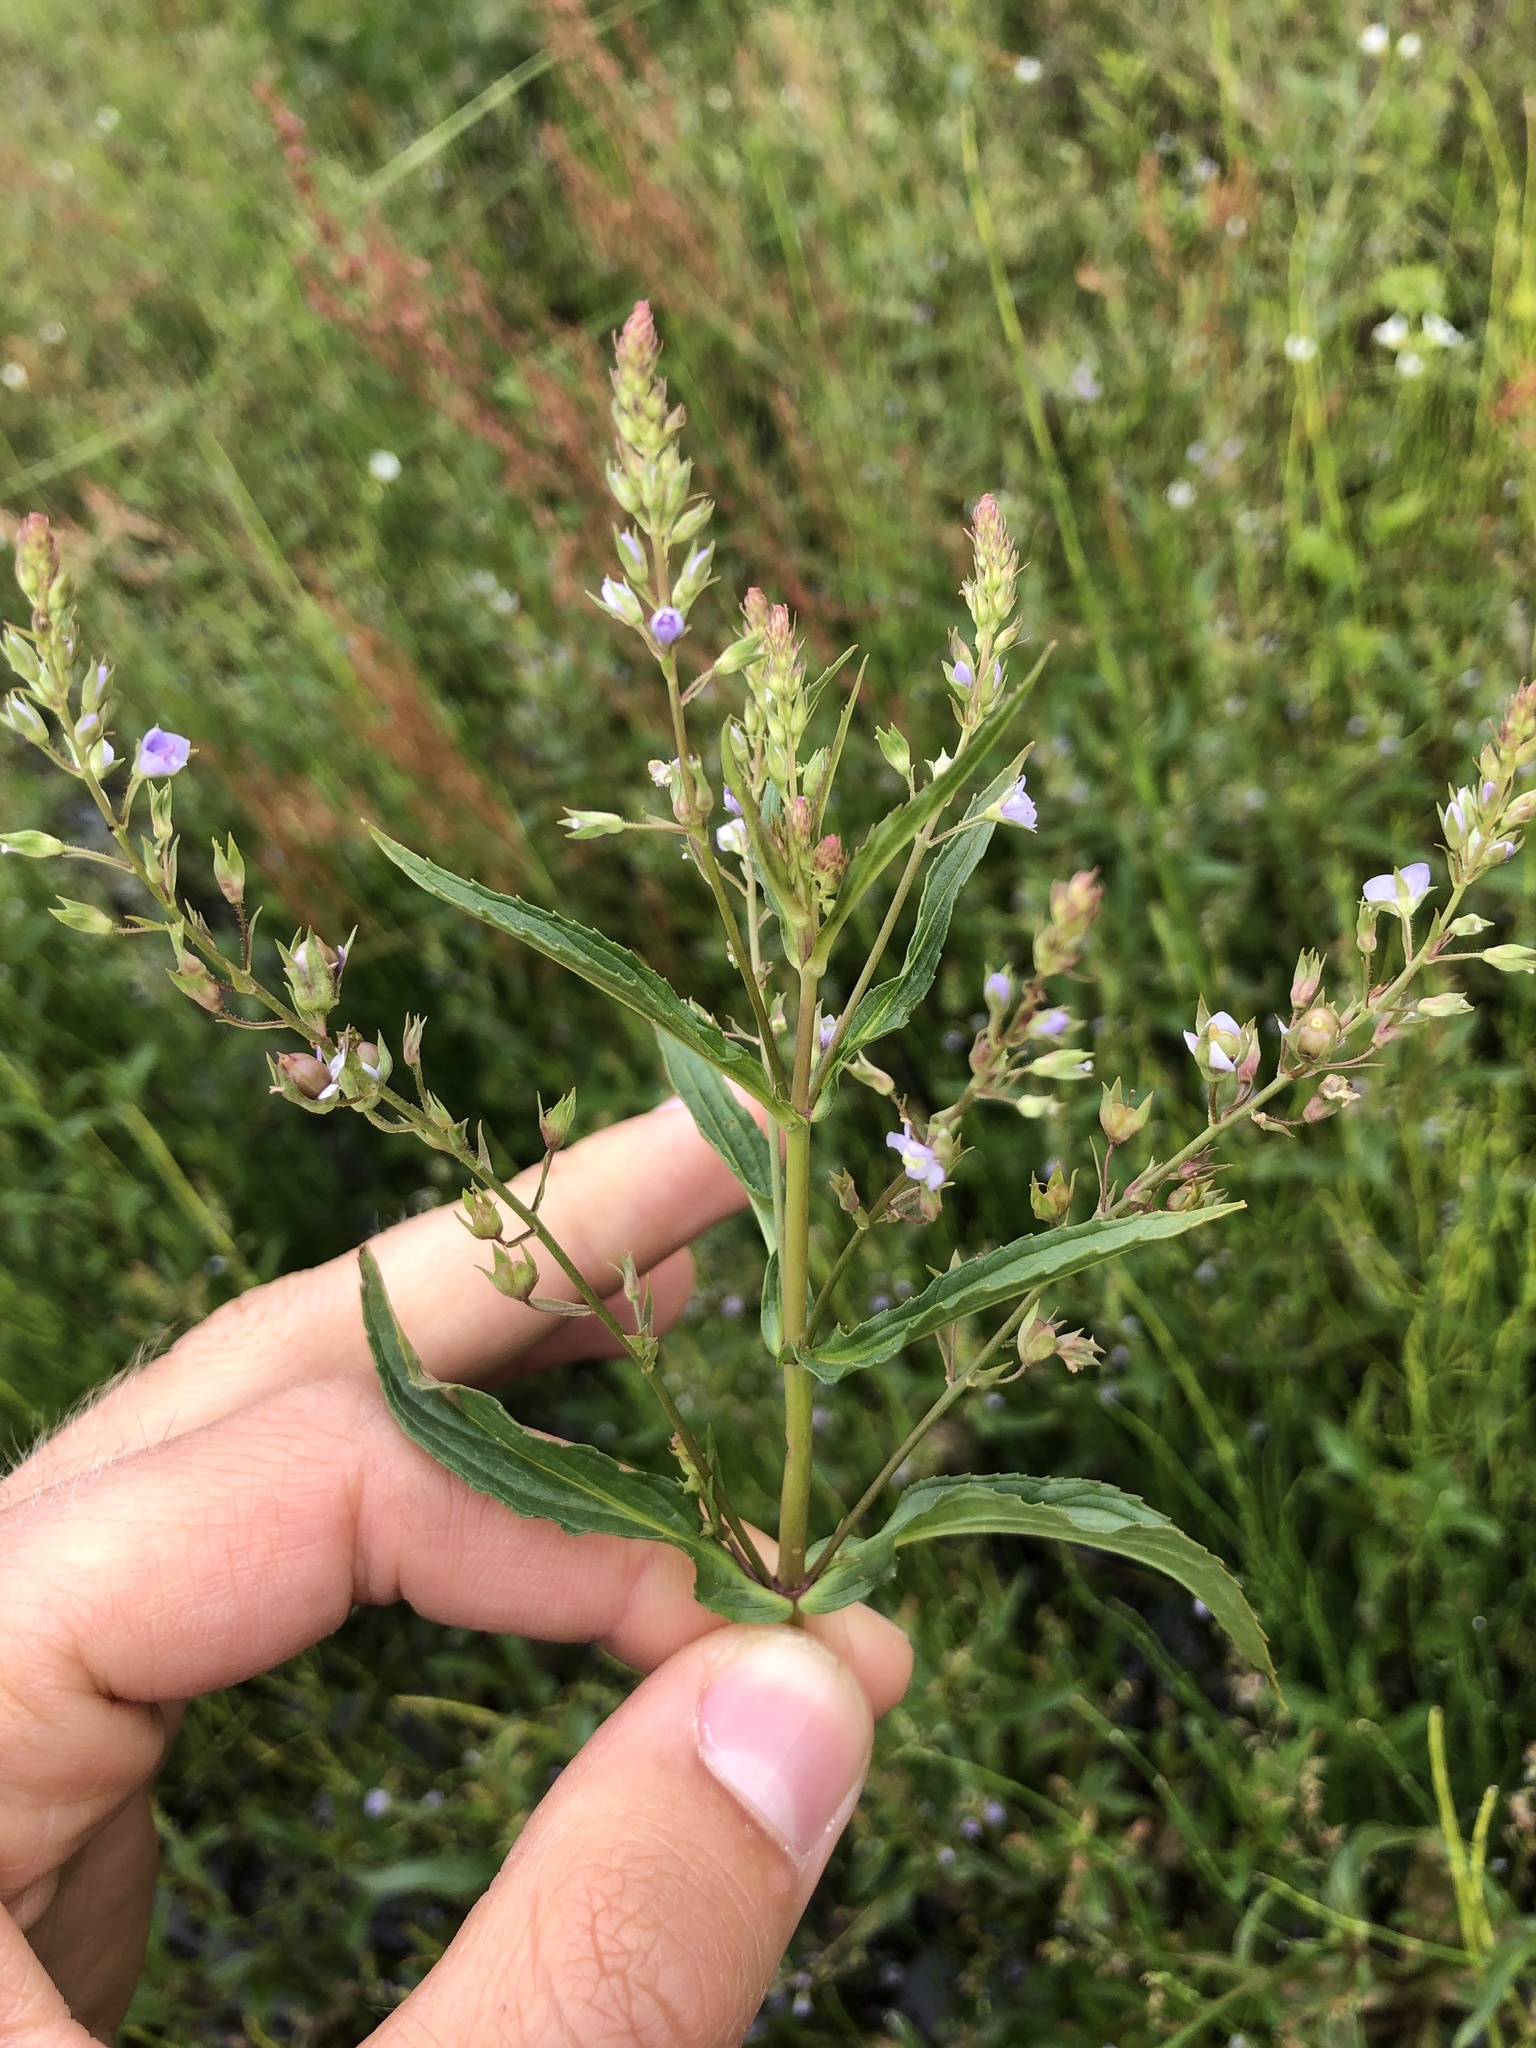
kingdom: Plantae
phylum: Tracheophyta
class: Magnoliopsida
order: Lamiales
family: Plantaginaceae
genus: Veronica
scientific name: Veronica anagallis-aquatica
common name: Water speedwell
